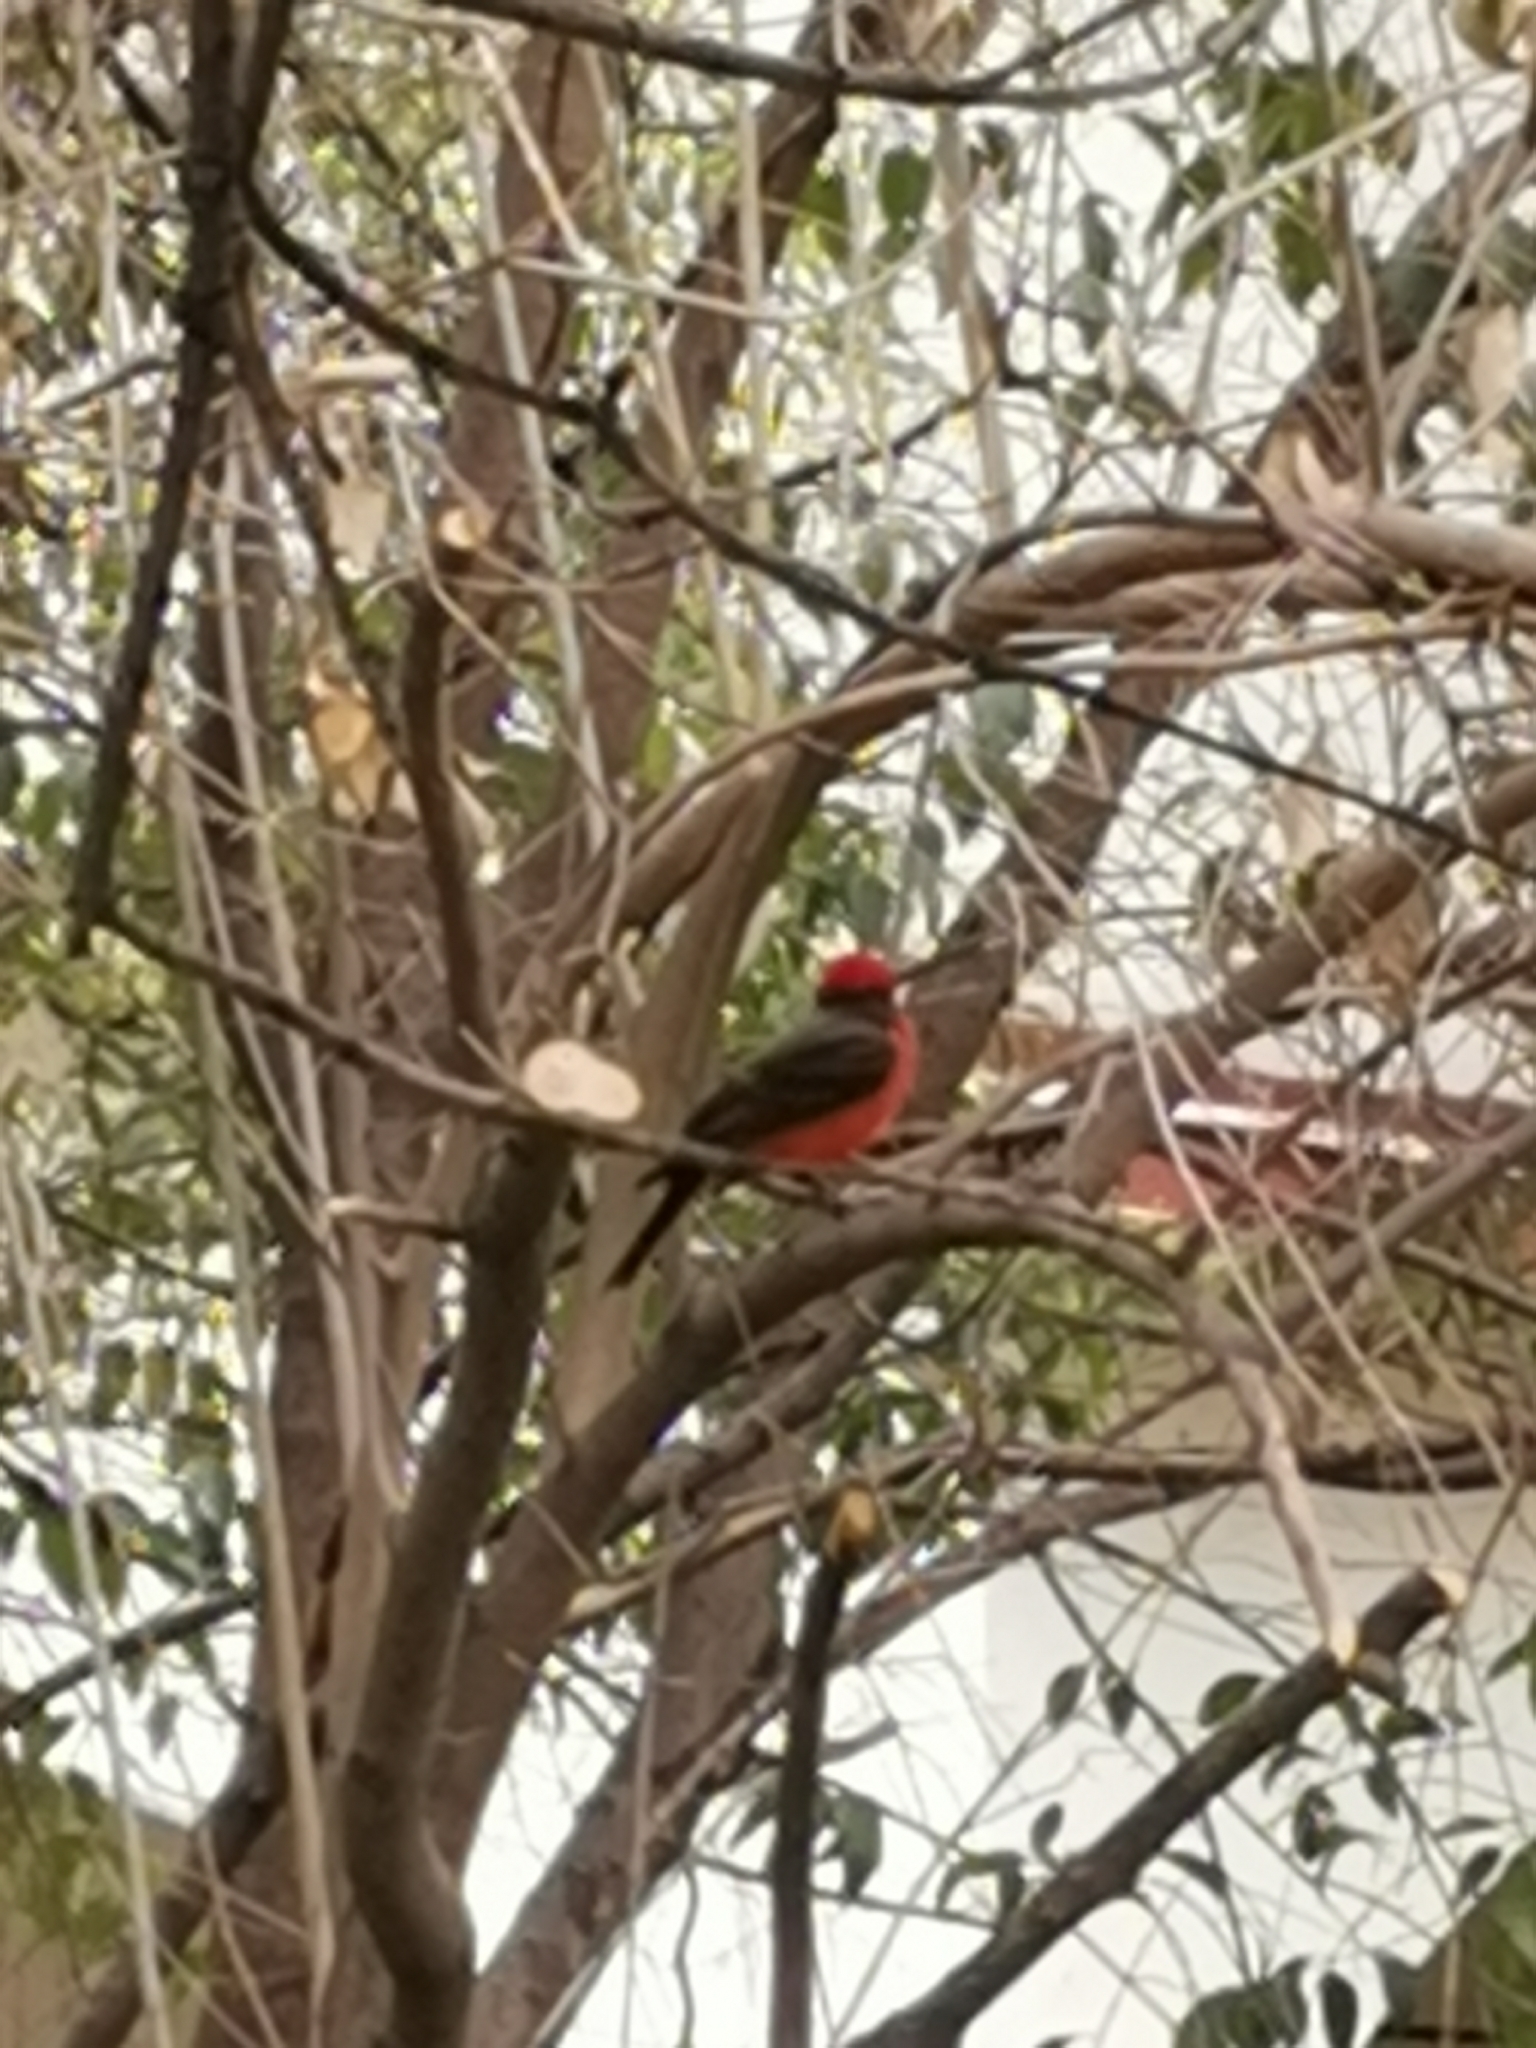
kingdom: Animalia
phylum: Chordata
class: Aves
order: Passeriformes
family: Tyrannidae
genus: Pyrocephalus
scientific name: Pyrocephalus rubinus
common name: Vermilion flycatcher
